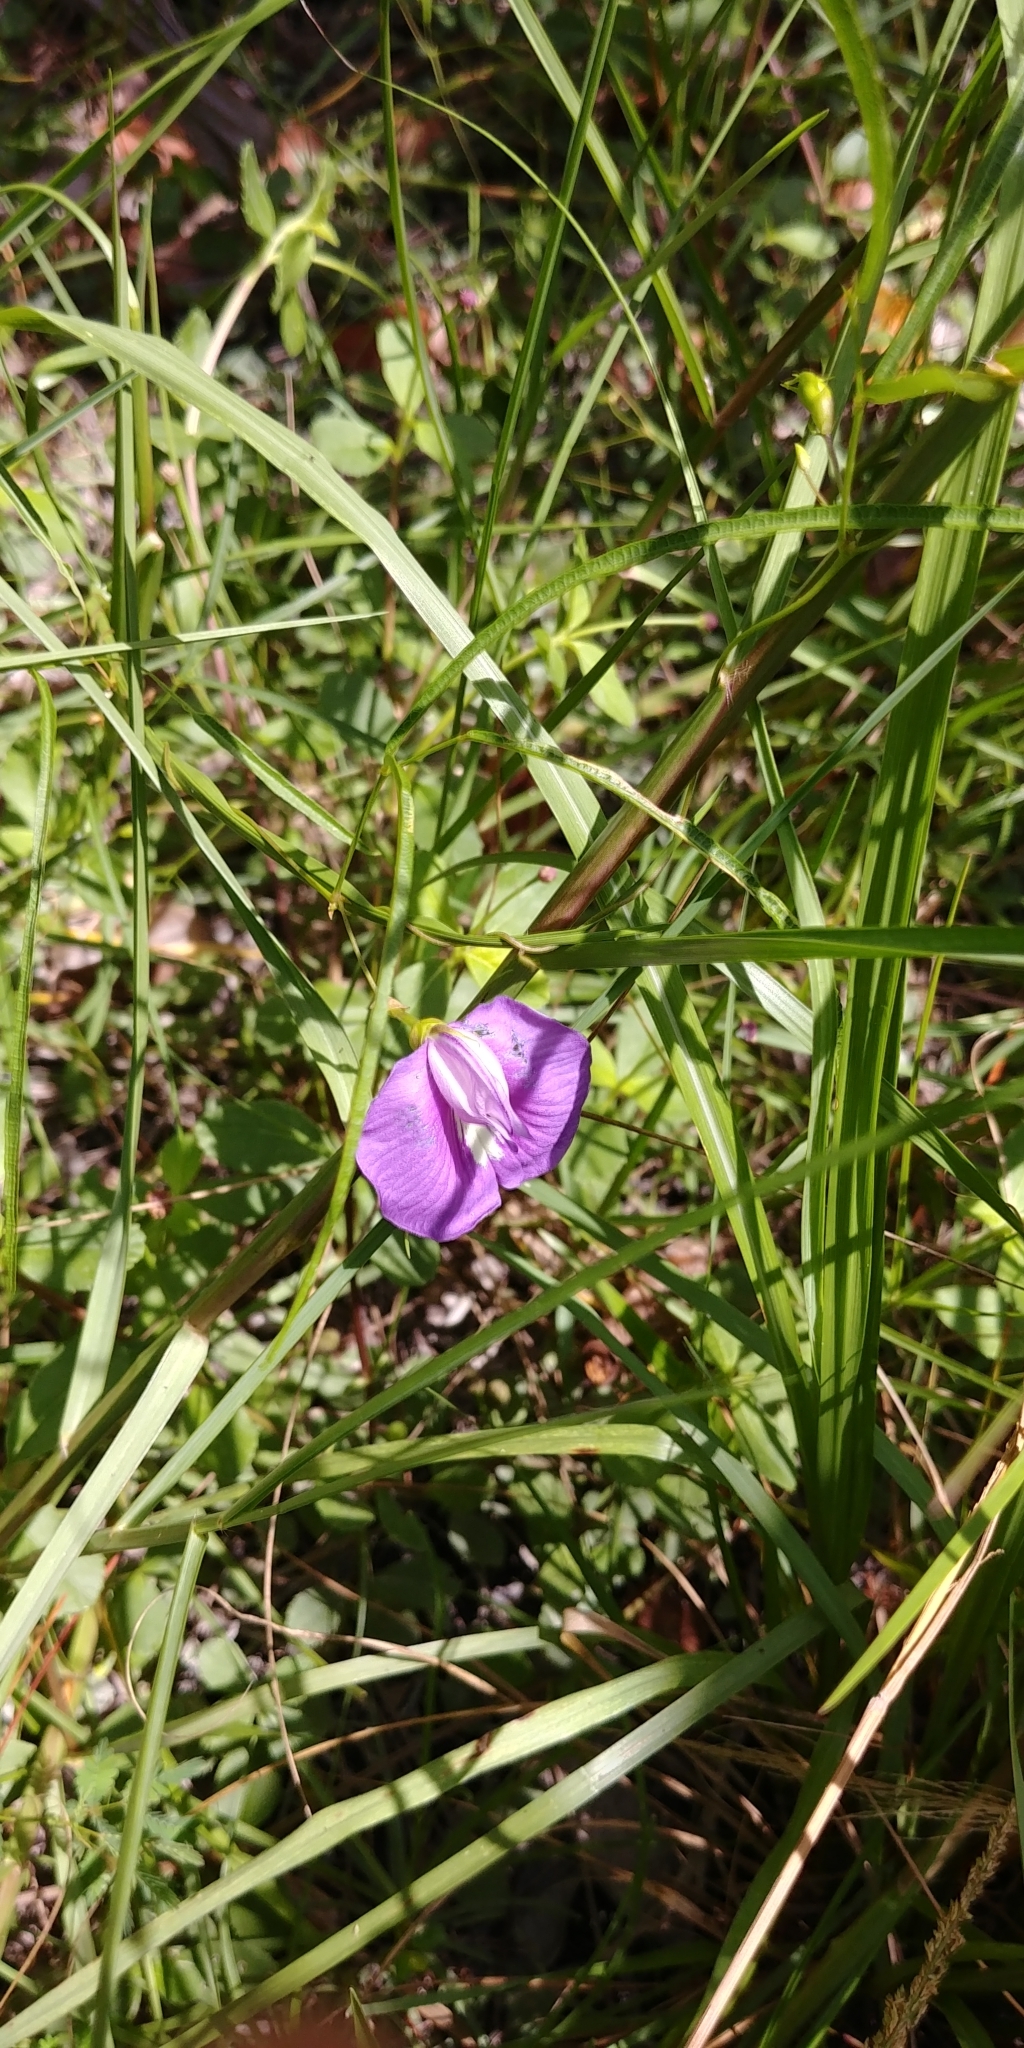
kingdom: Plantae
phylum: Tracheophyta
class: Magnoliopsida
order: Fabales
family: Fabaceae
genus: Centrosema
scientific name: Centrosema virginianum
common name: Butterfly-pea
